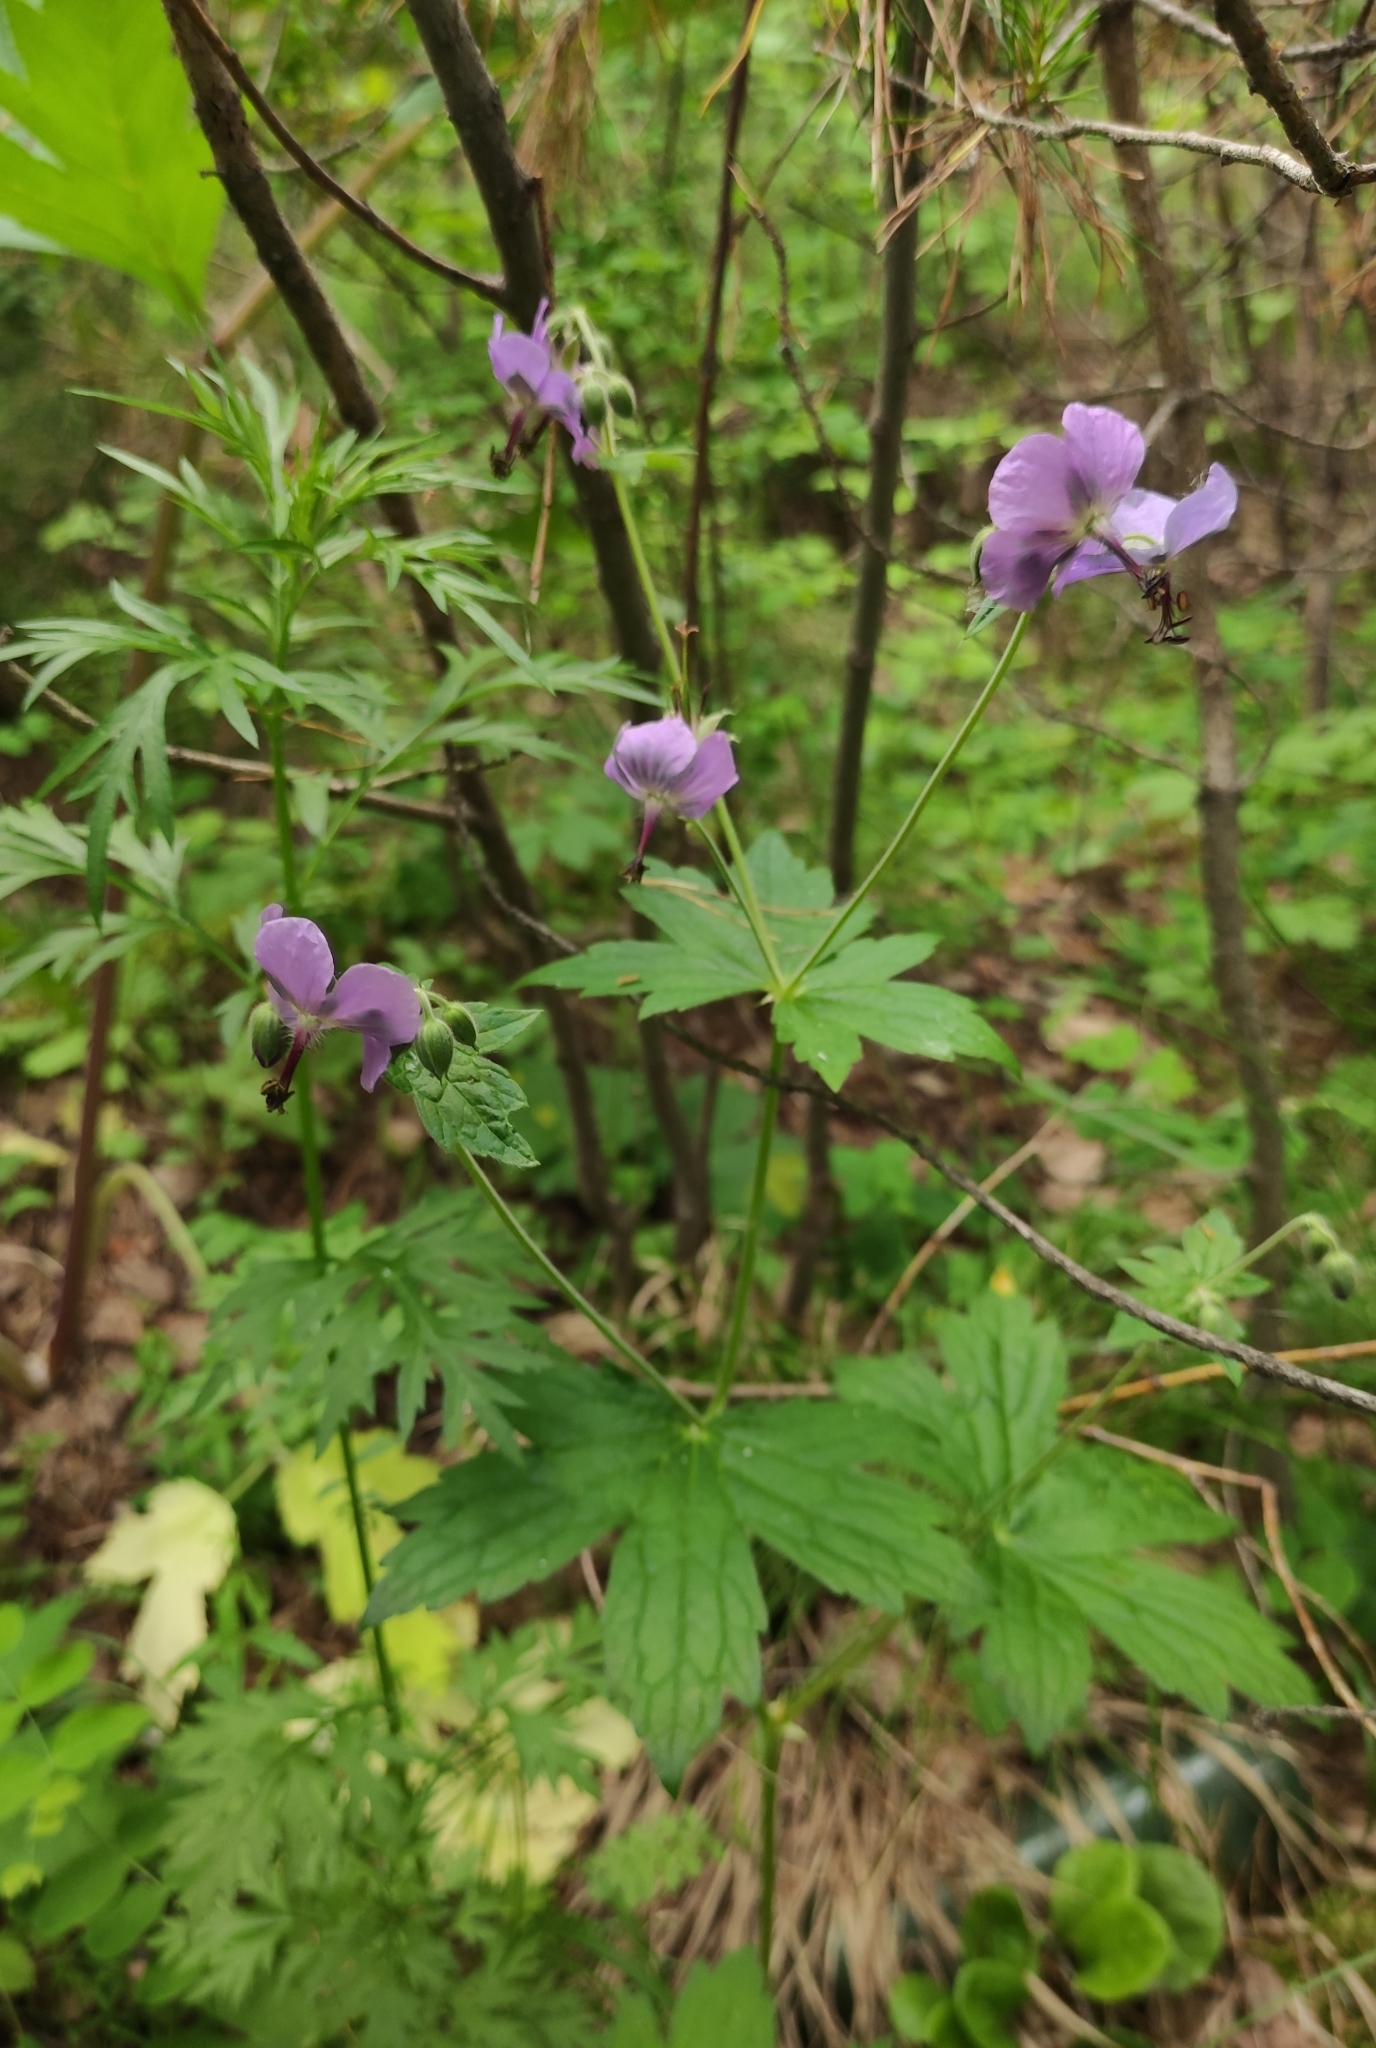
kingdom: Plantae
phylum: Tracheophyta
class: Magnoliopsida
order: Geraniales
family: Geraniaceae
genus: Geranium
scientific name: Geranium platyanthum
